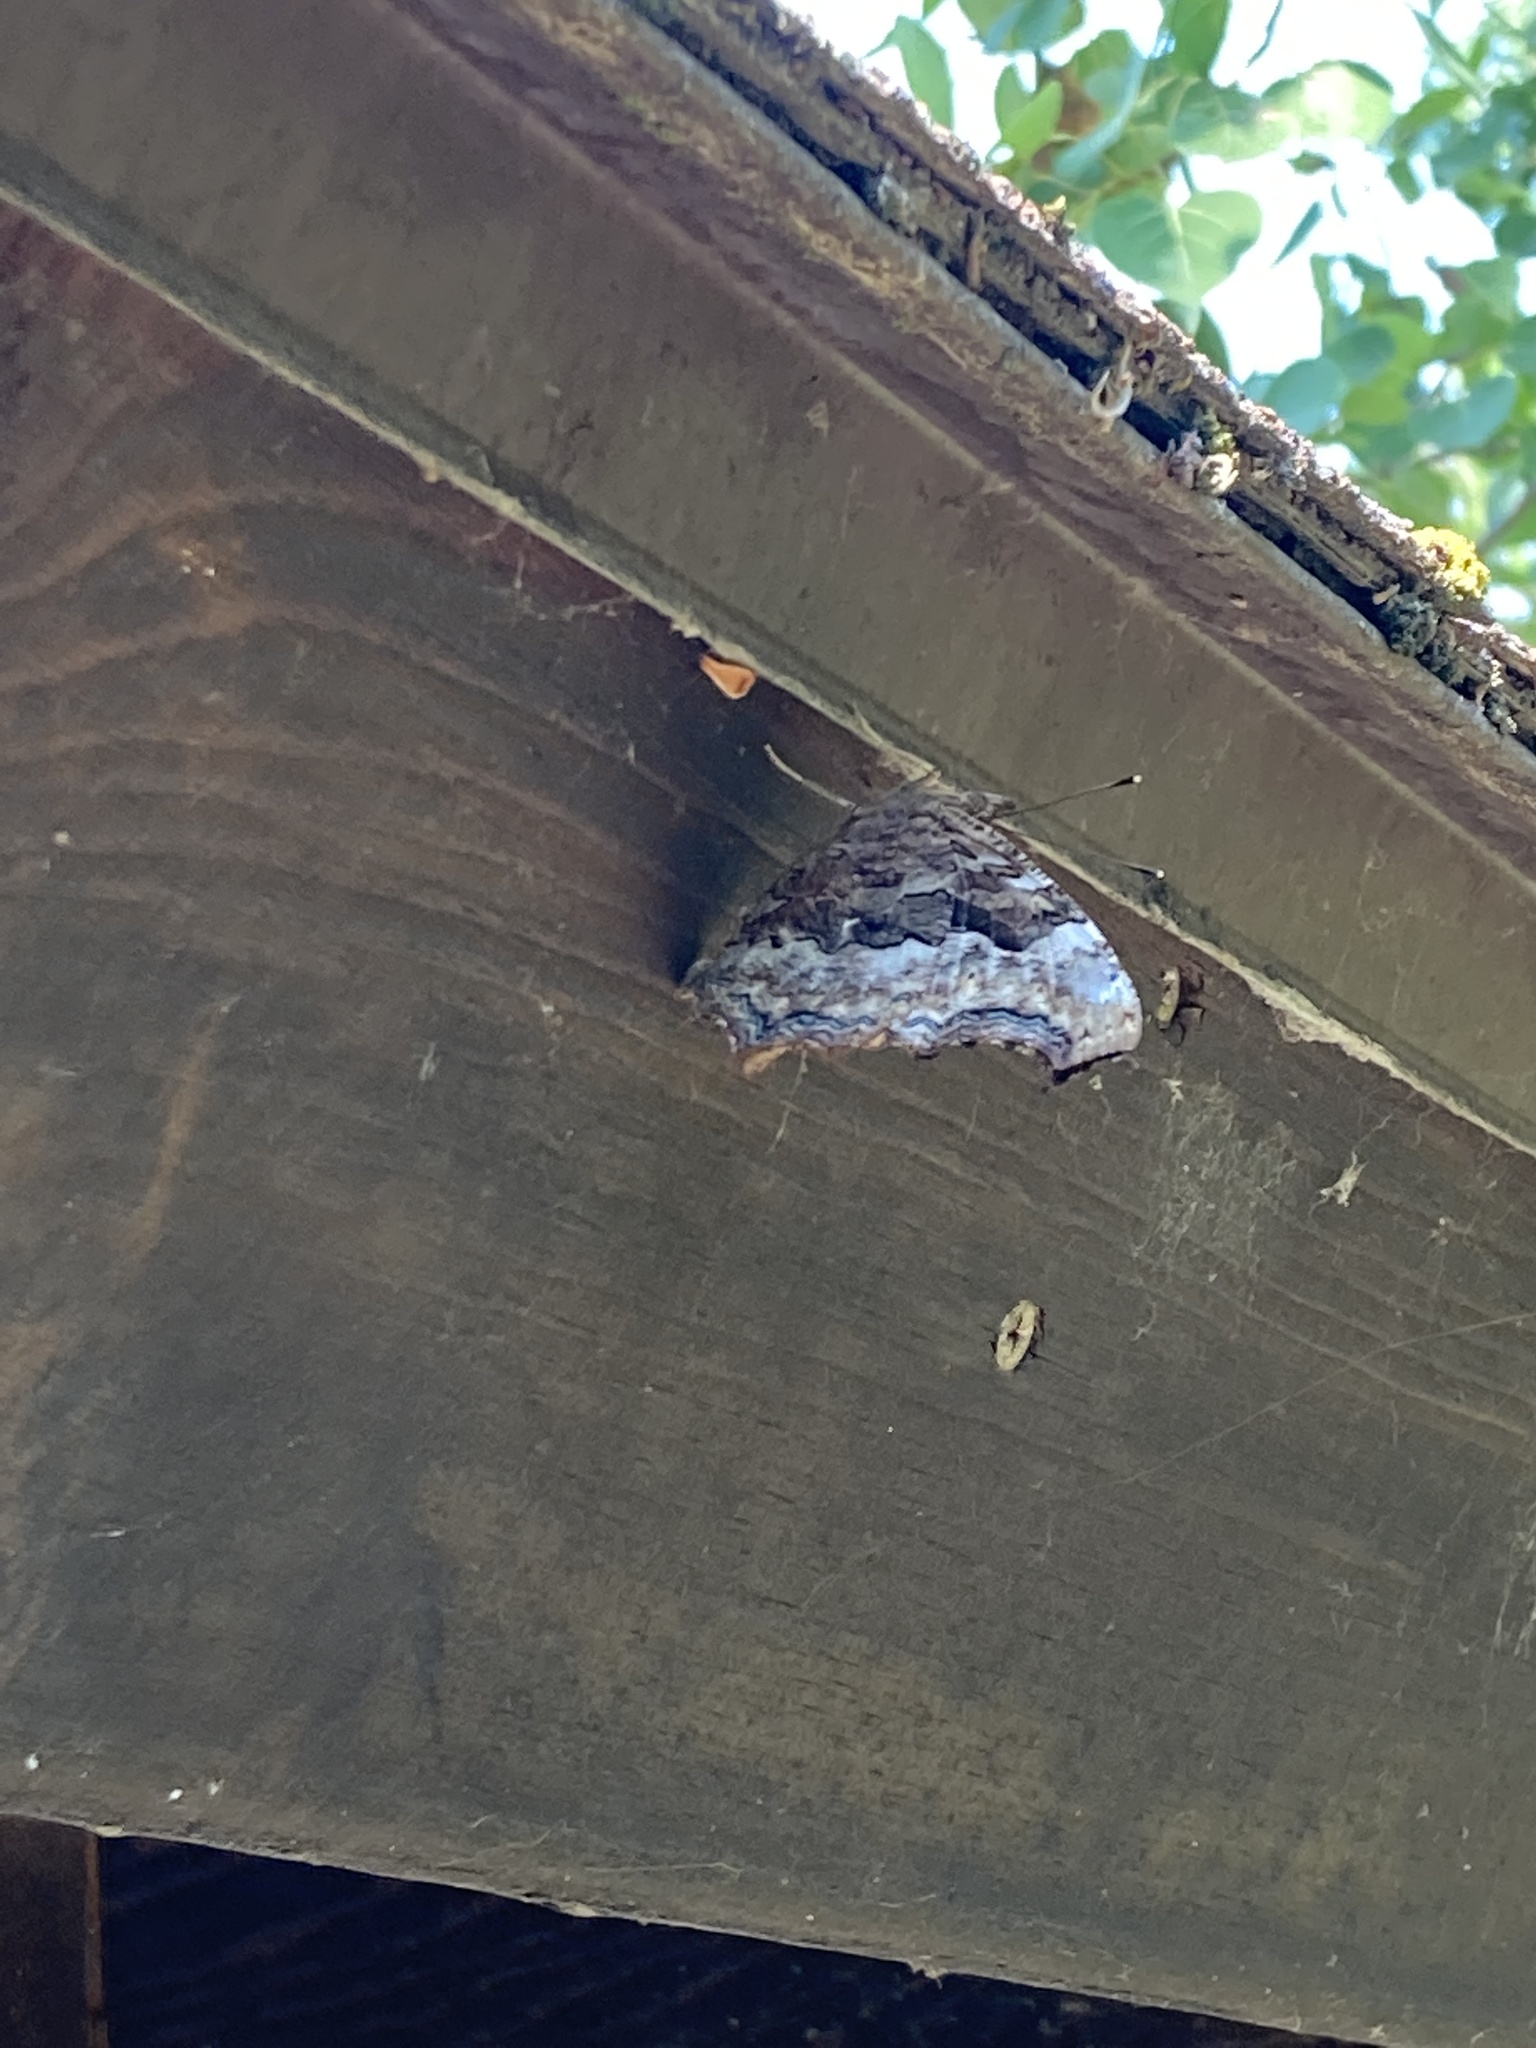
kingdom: Animalia
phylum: Arthropoda
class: Insecta
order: Lepidoptera
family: Nymphalidae
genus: Polygonia
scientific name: Polygonia vaualbum
